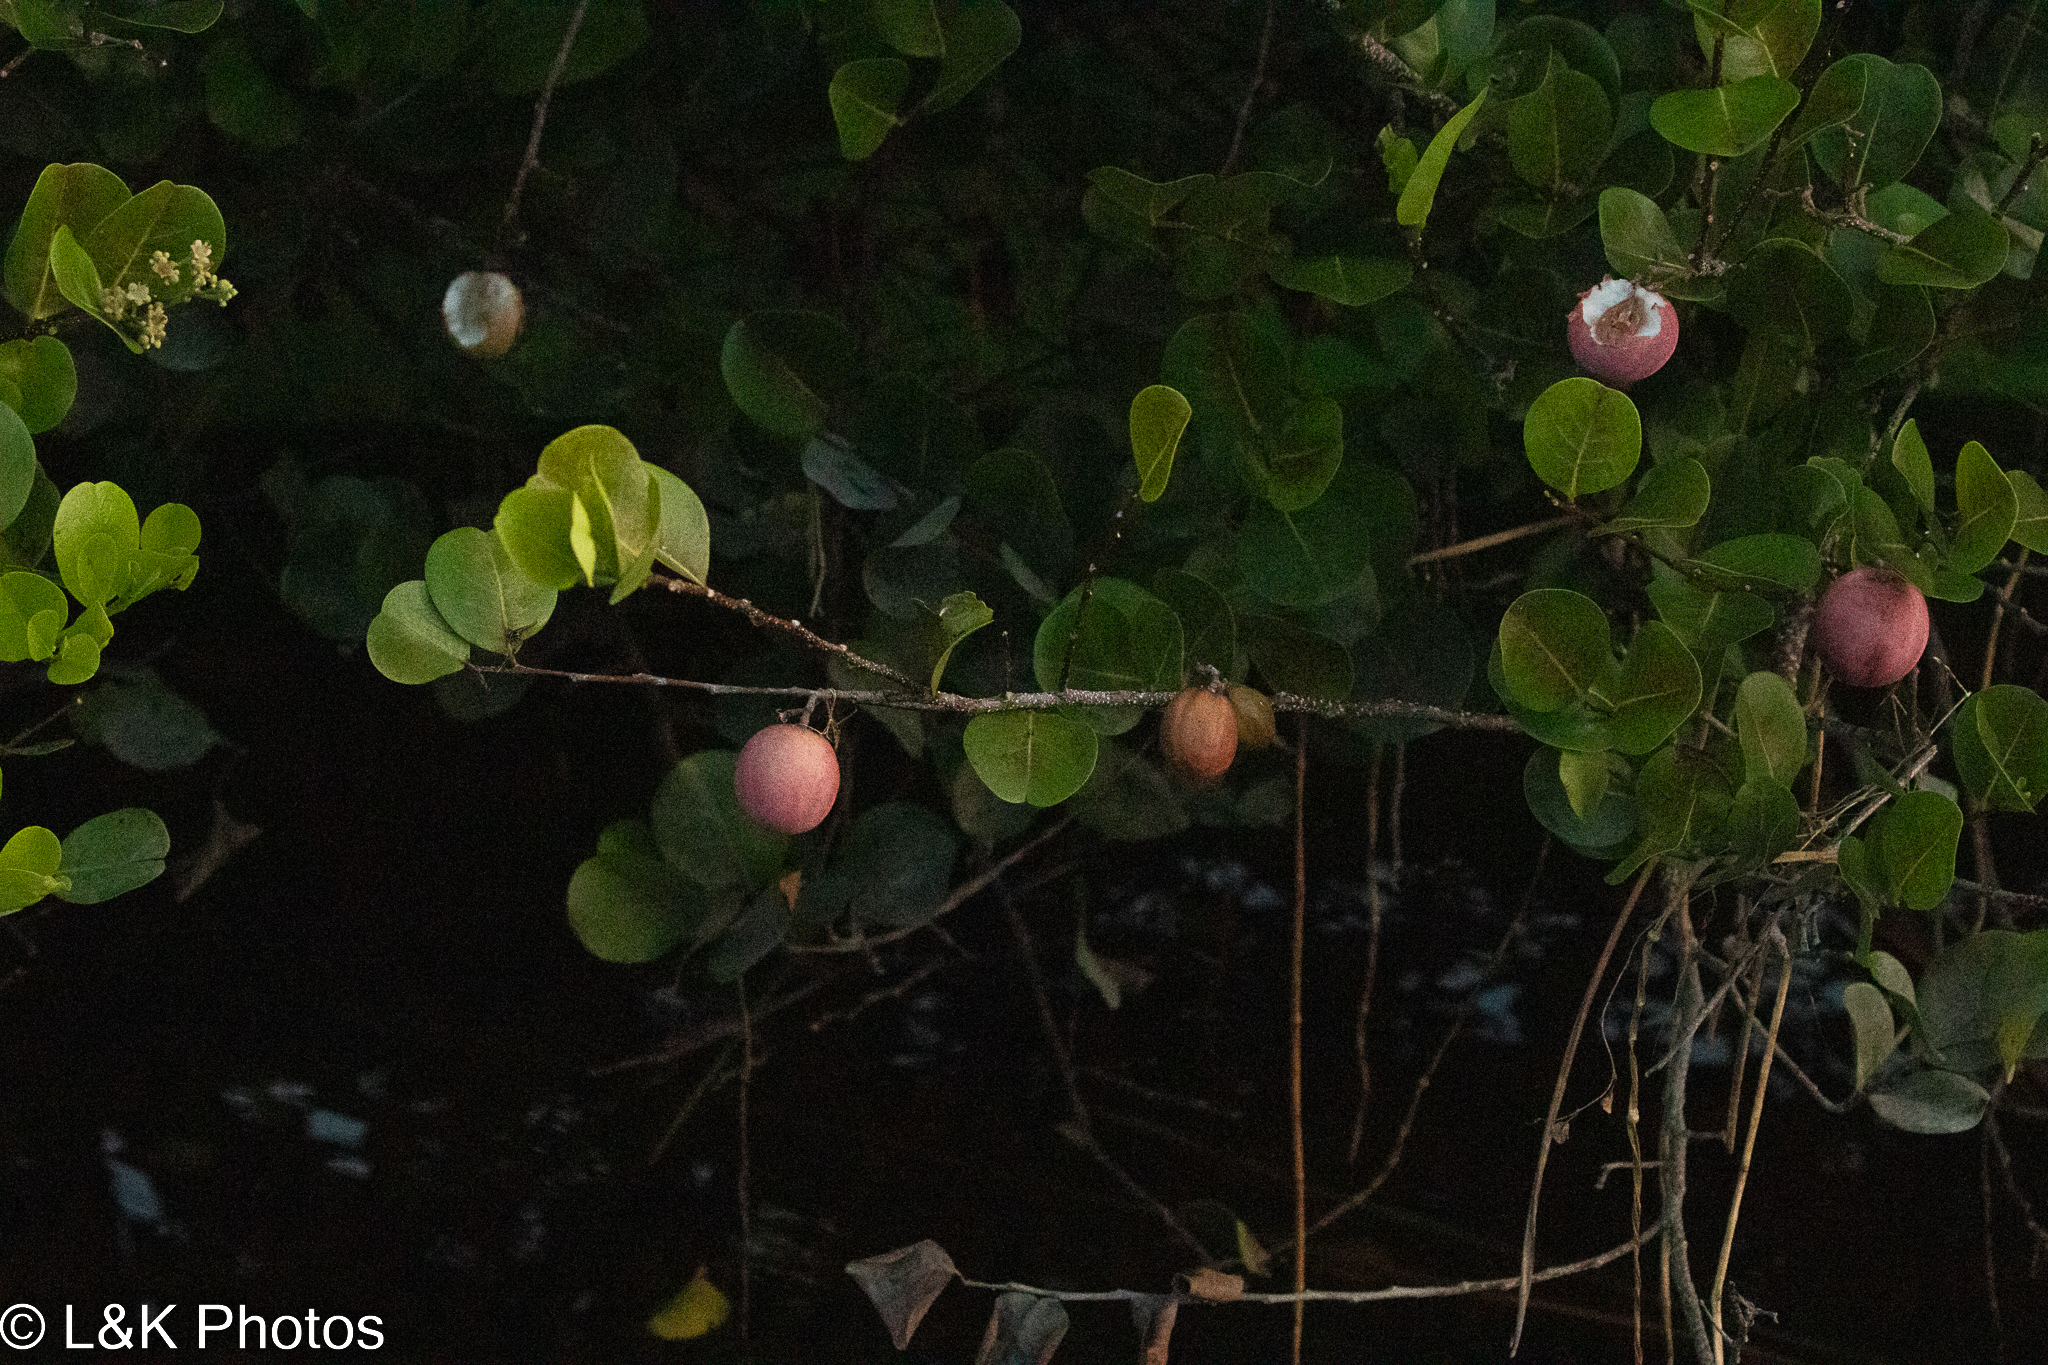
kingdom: Plantae
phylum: Tracheophyta
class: Magnoliopsida
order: Malpighiales
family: Chrysobalanaceae
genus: Chrysobalanus
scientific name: Chrysobalanus icaco
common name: Coco plum
